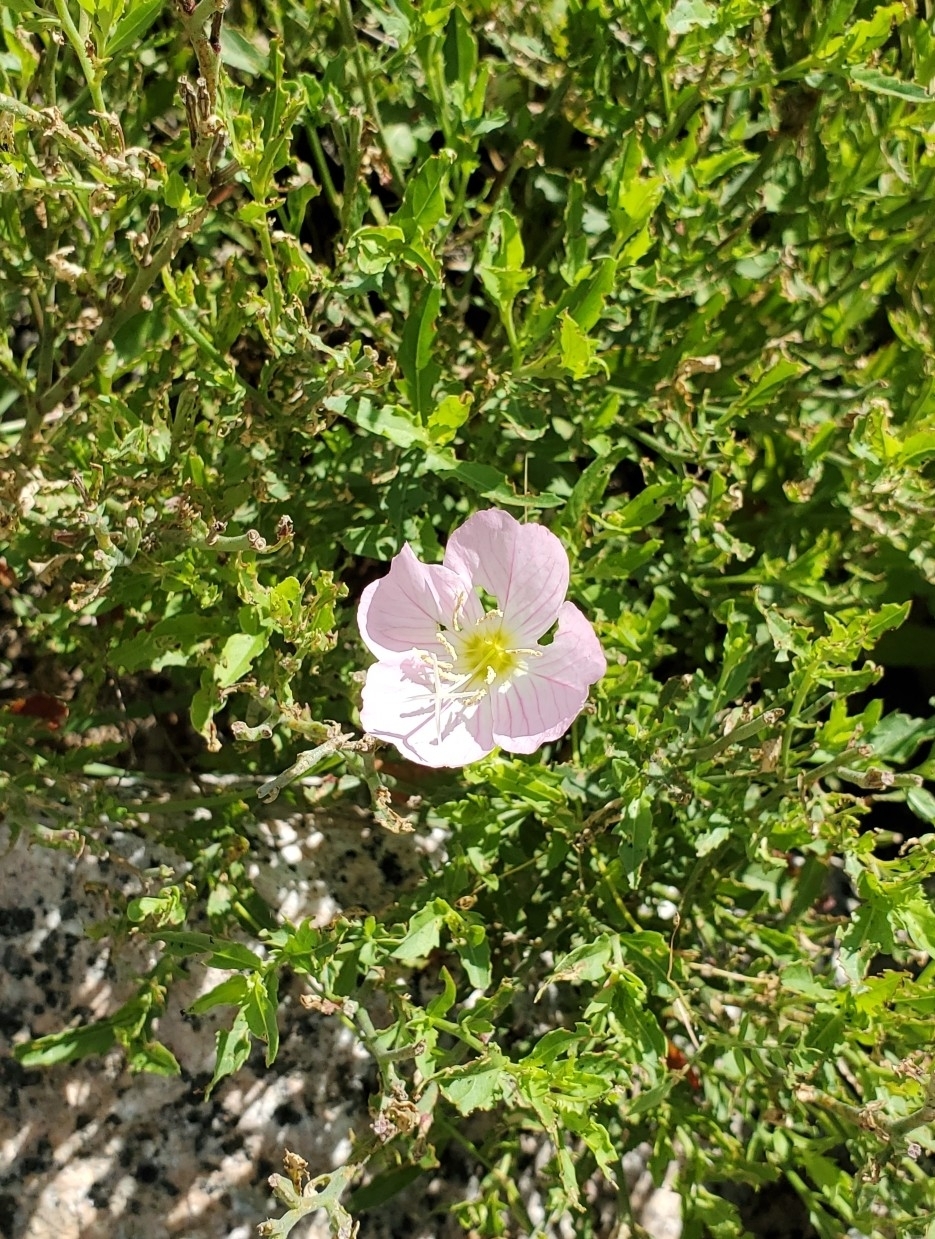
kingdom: Plantae
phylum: Tracheophyta
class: Magnoliopsida
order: Myrtales
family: Onagraceae
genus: Oenothera
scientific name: Oenothera speciosa
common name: White evening-primrose
